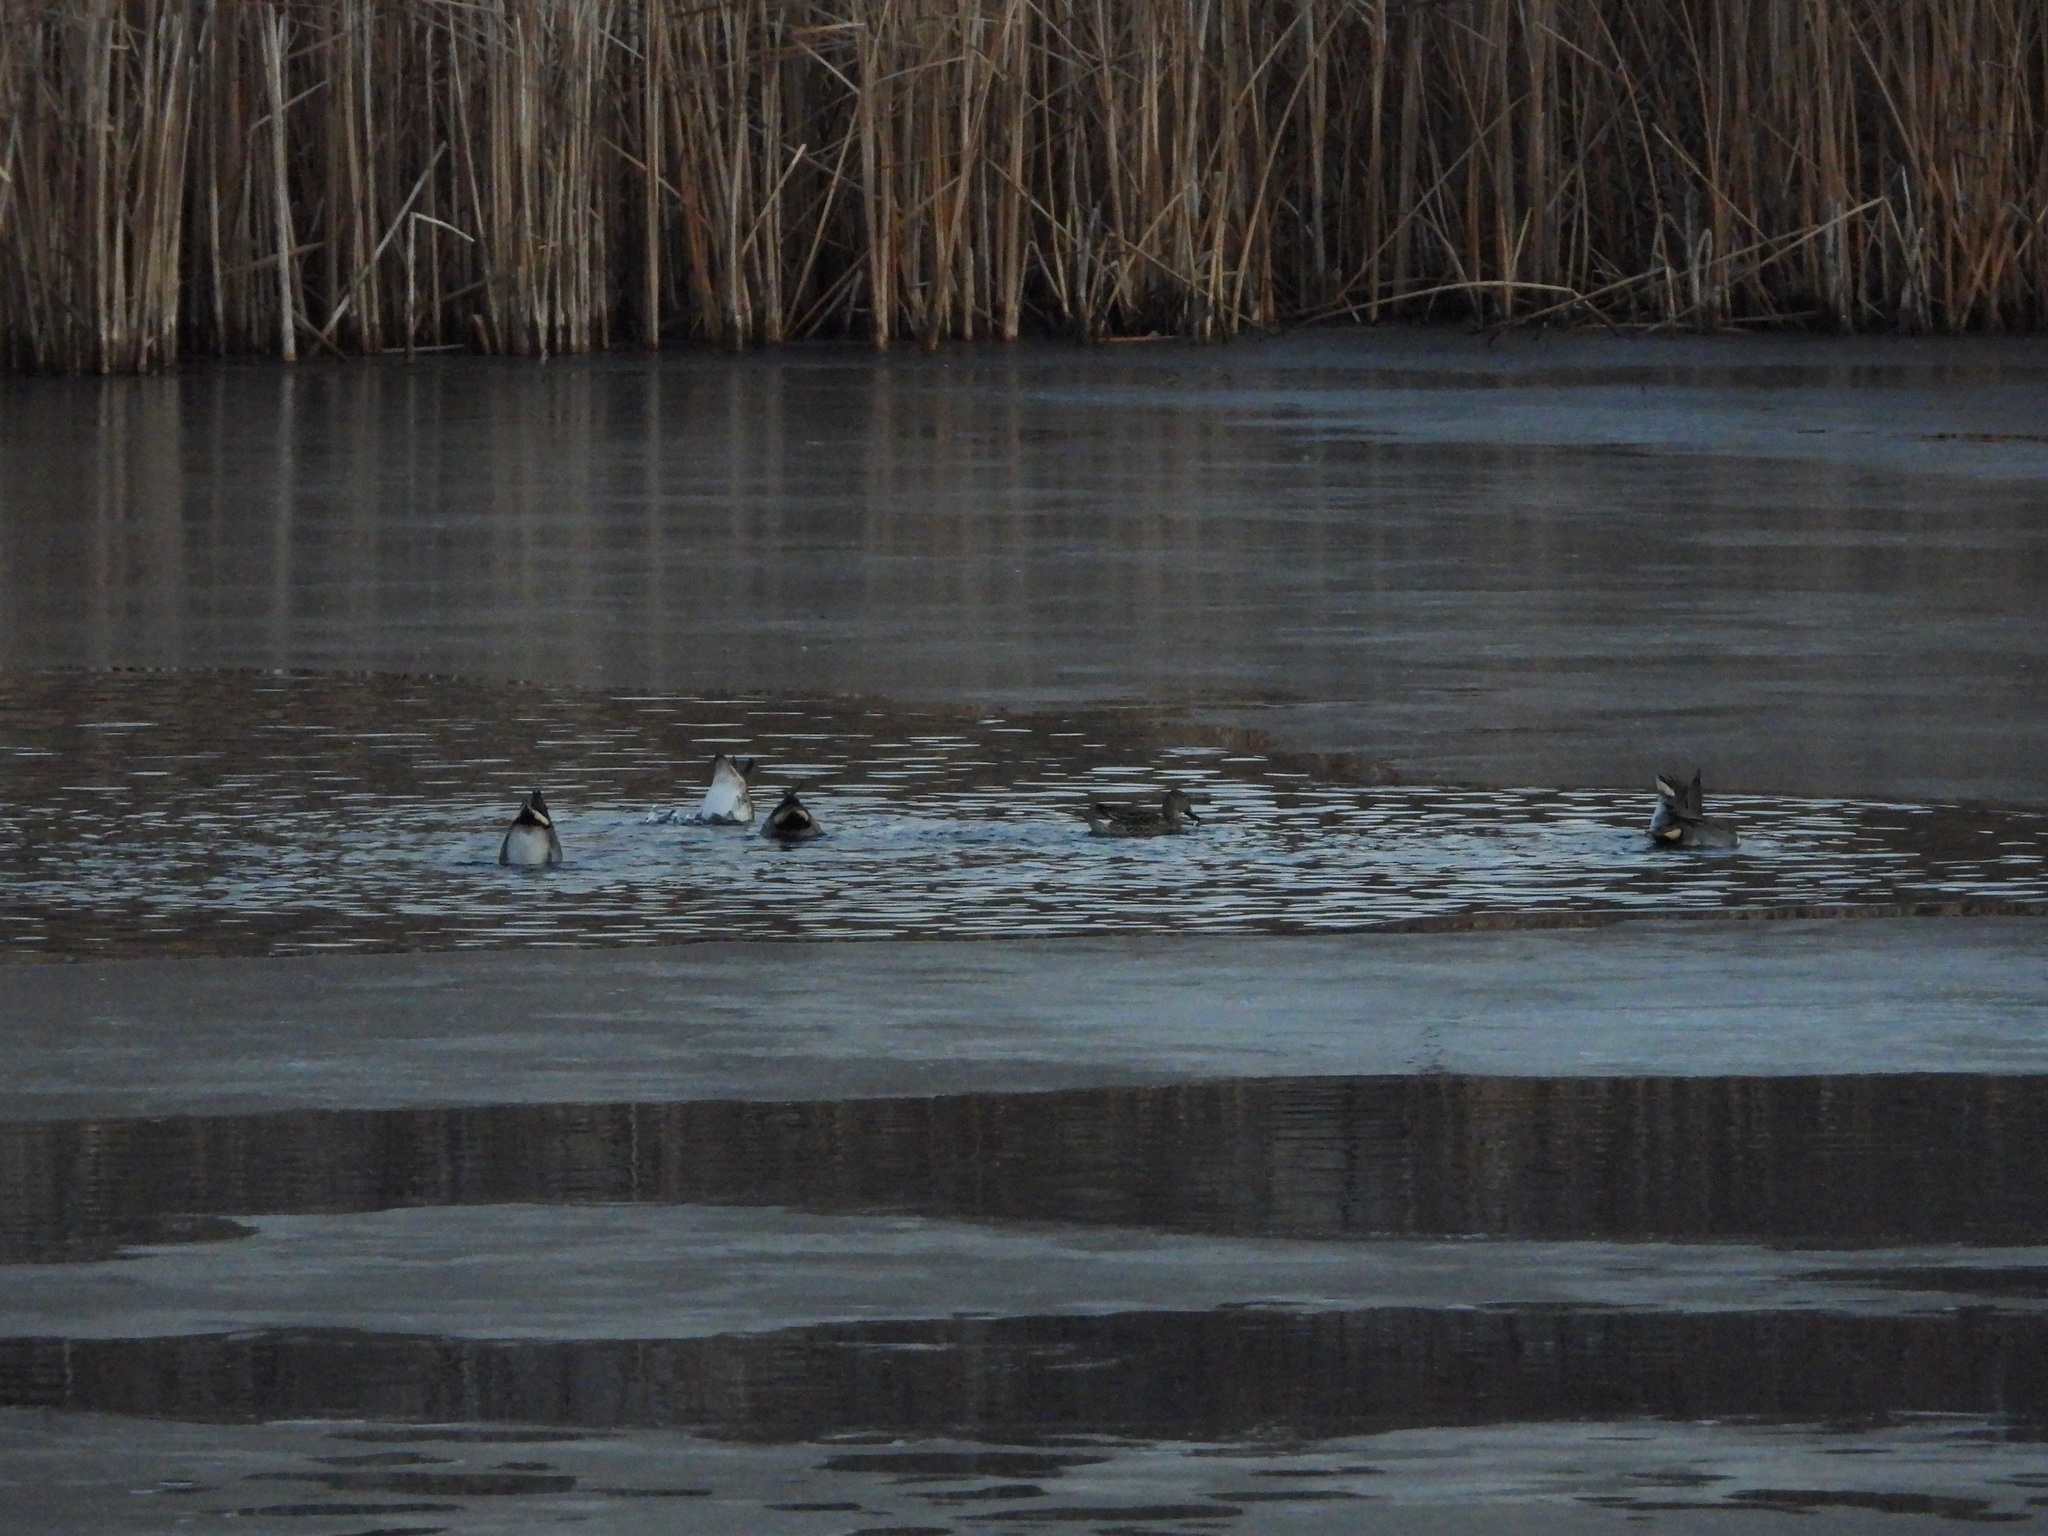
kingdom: Animalia
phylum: Chordata
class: Aves
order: Anseriformes
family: Anatidae
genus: Anas
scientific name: Anas crecca
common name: Eurasian teal
